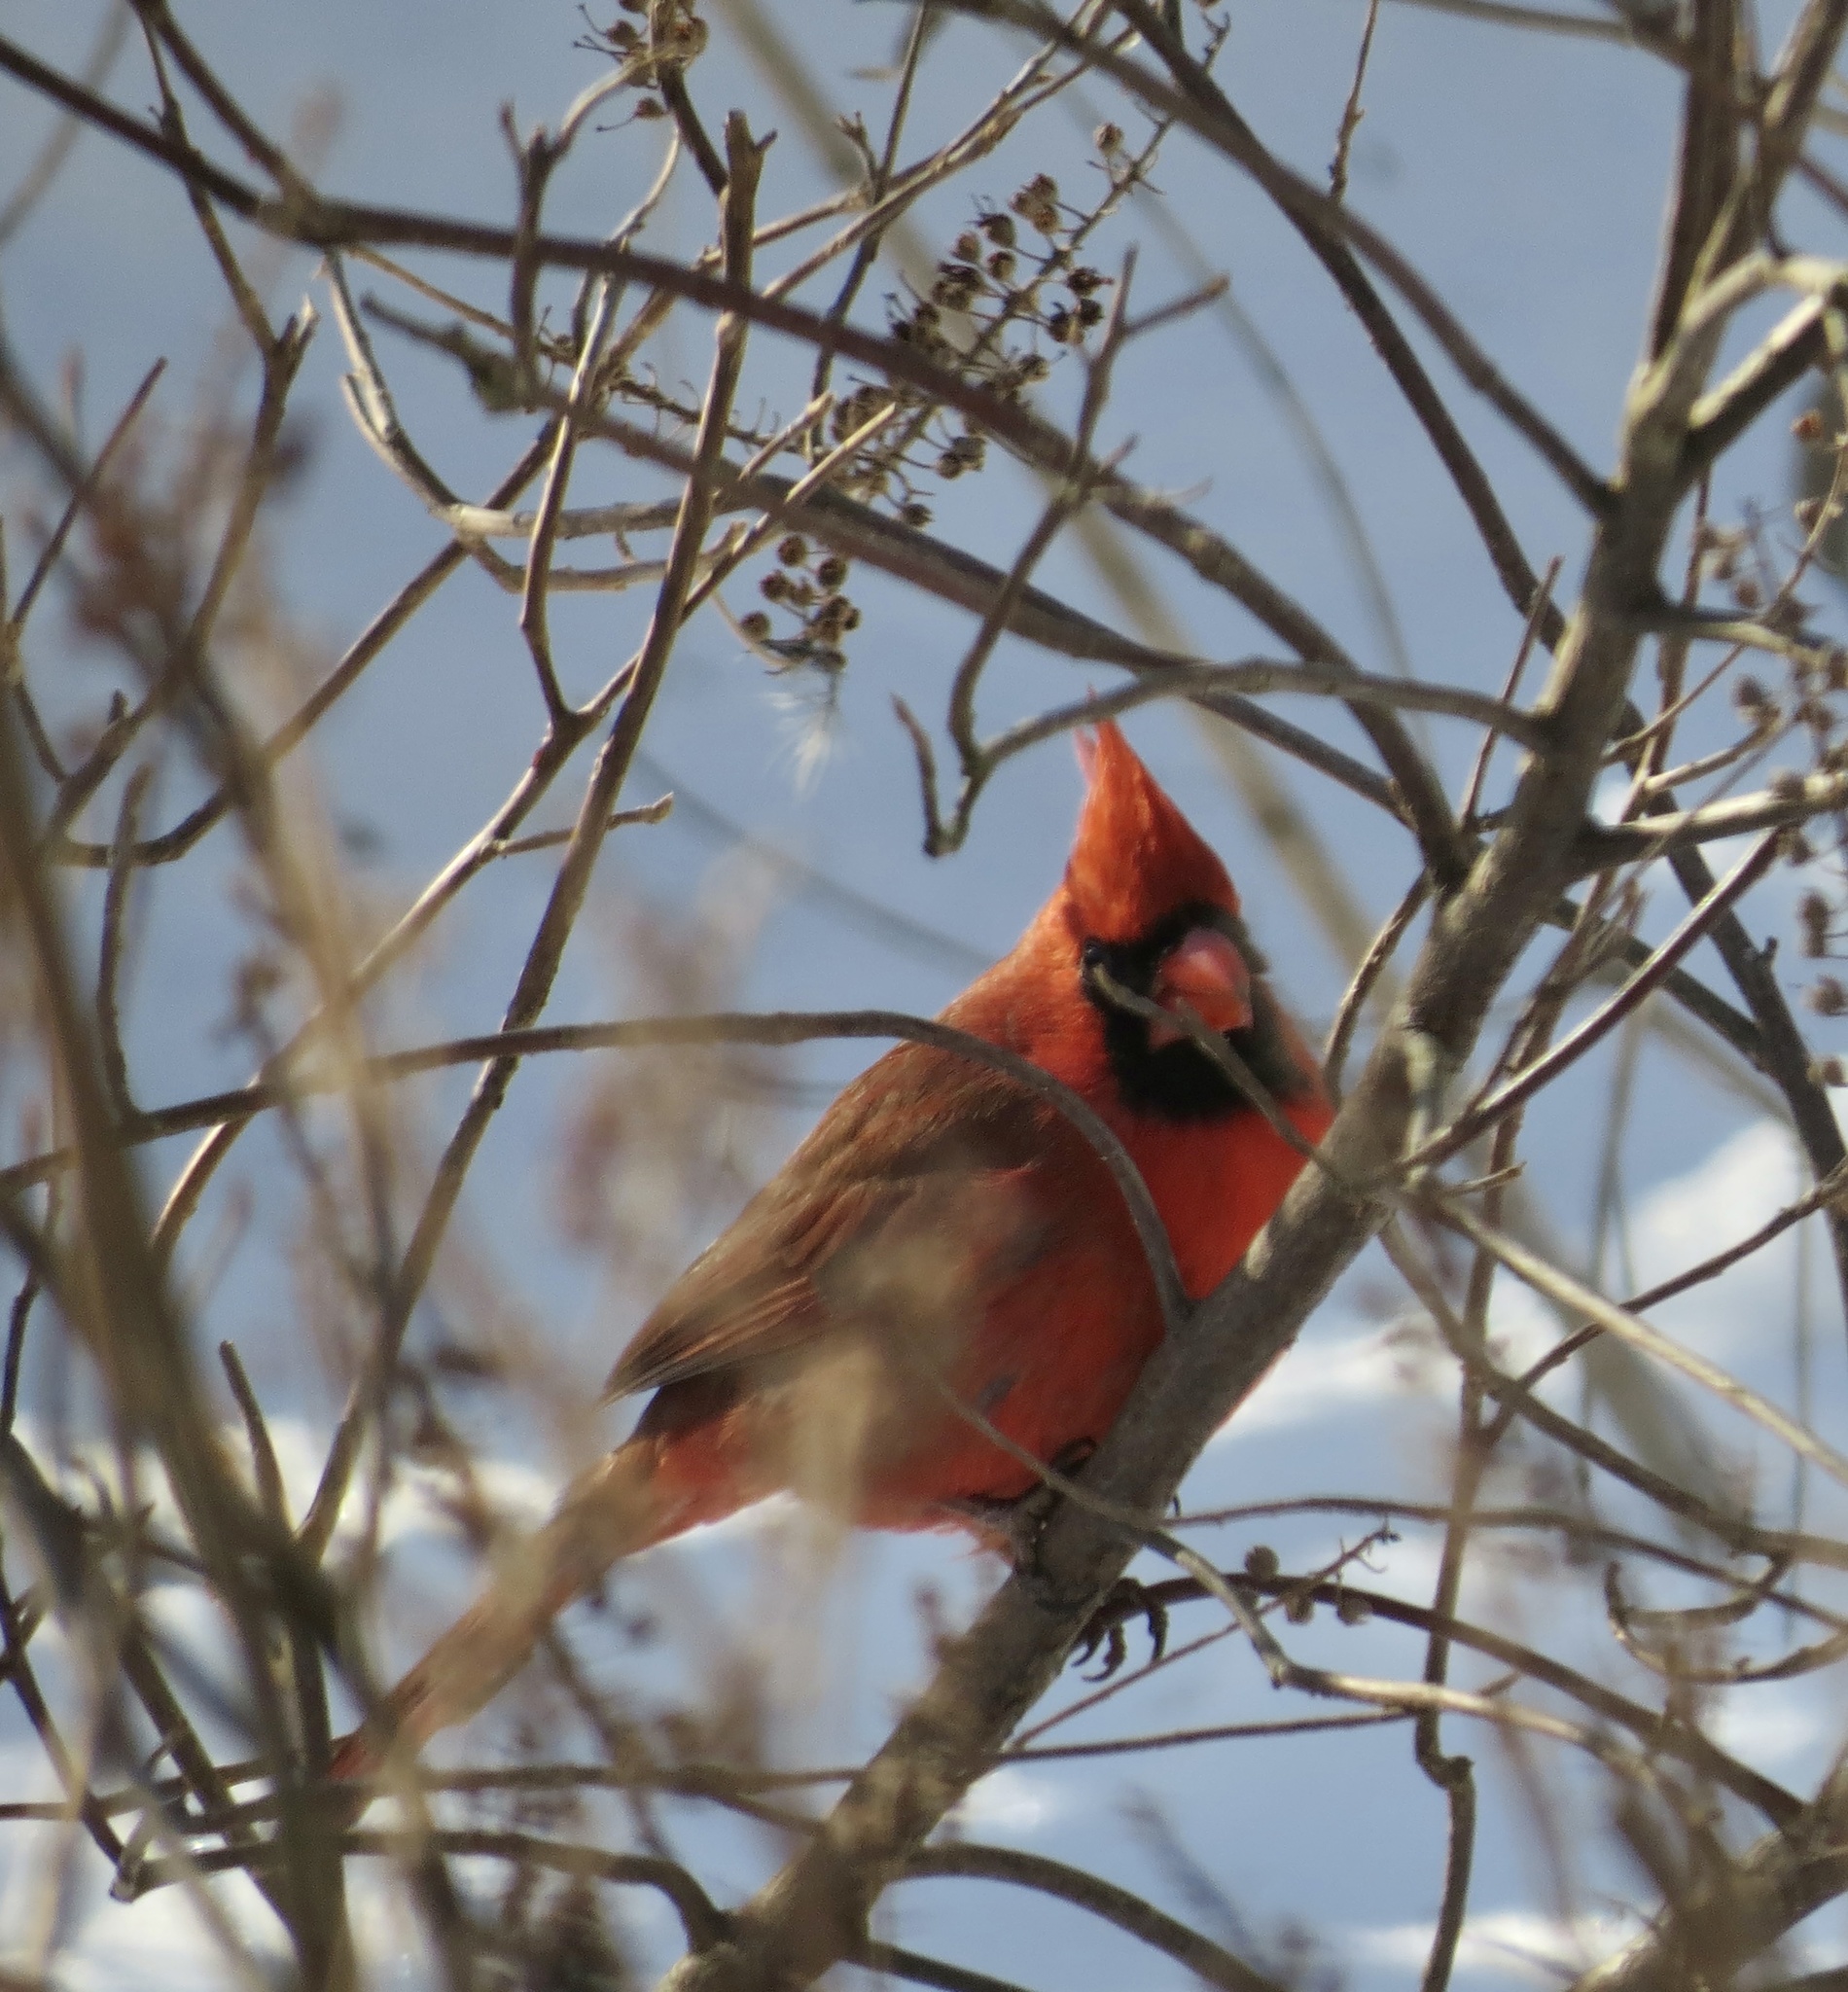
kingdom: Animalia
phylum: Chordata
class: Aves
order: Passeriformes
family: Cardinalidae
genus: Cardinalis
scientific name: Cardinalis cardinalis
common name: Northern cardinal
